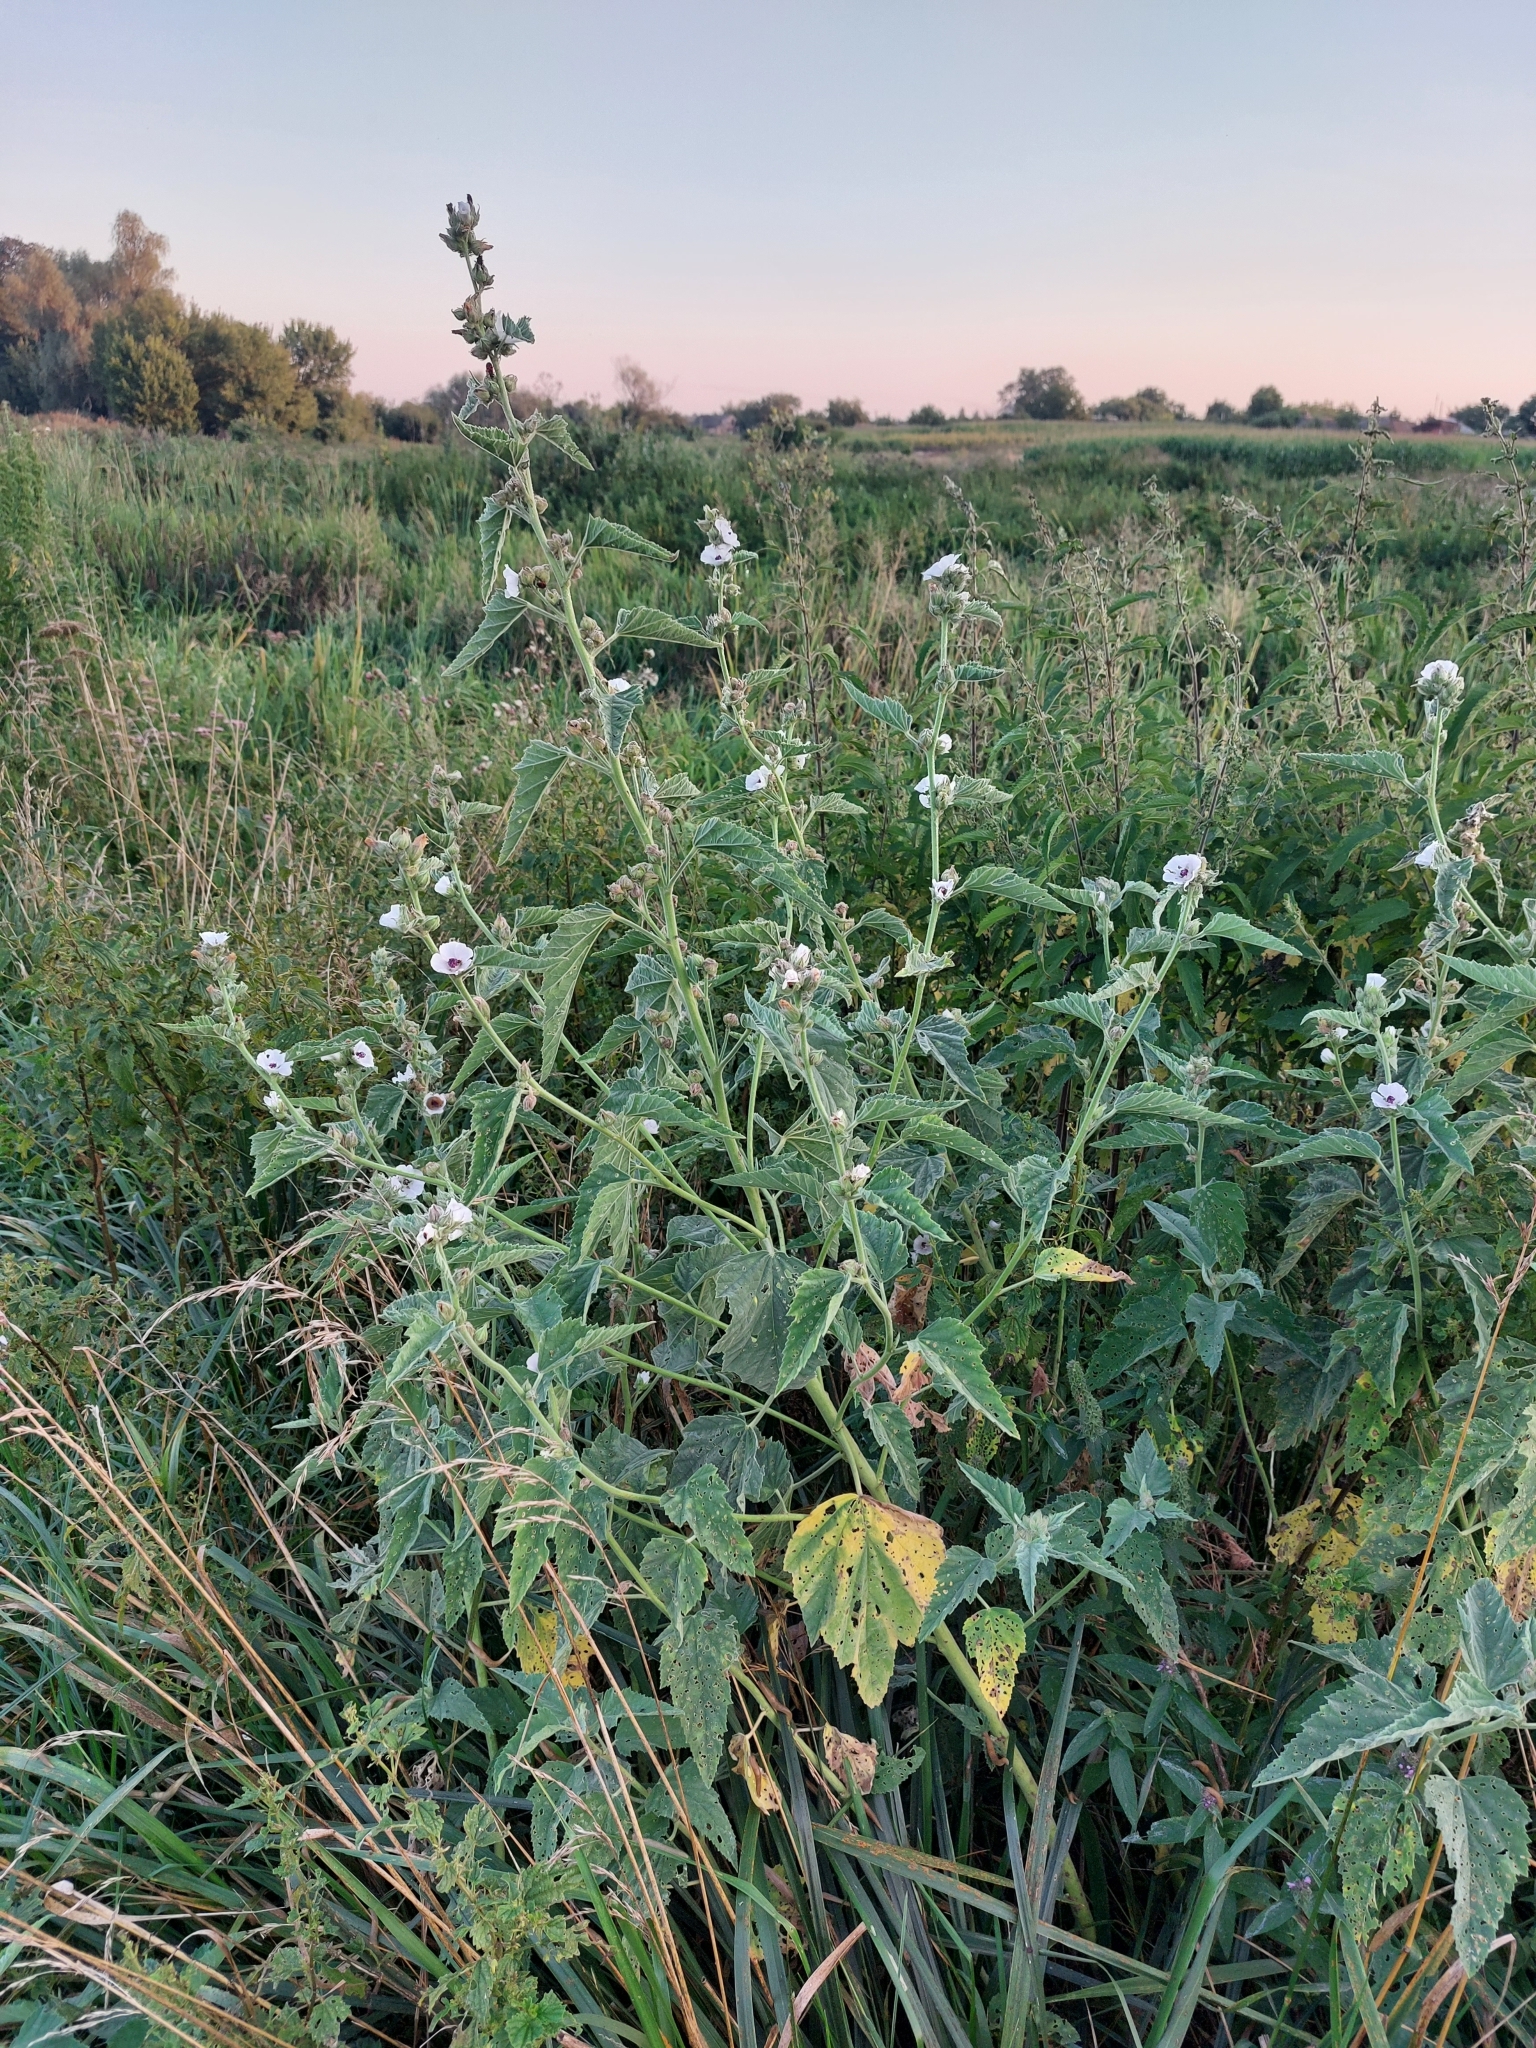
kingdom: Plantae
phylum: Tracheophyta
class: Magnoliopsida
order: Malvales
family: Malvaceae
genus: Althaea
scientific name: Althaea officinalis
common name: Marsh-mallow
